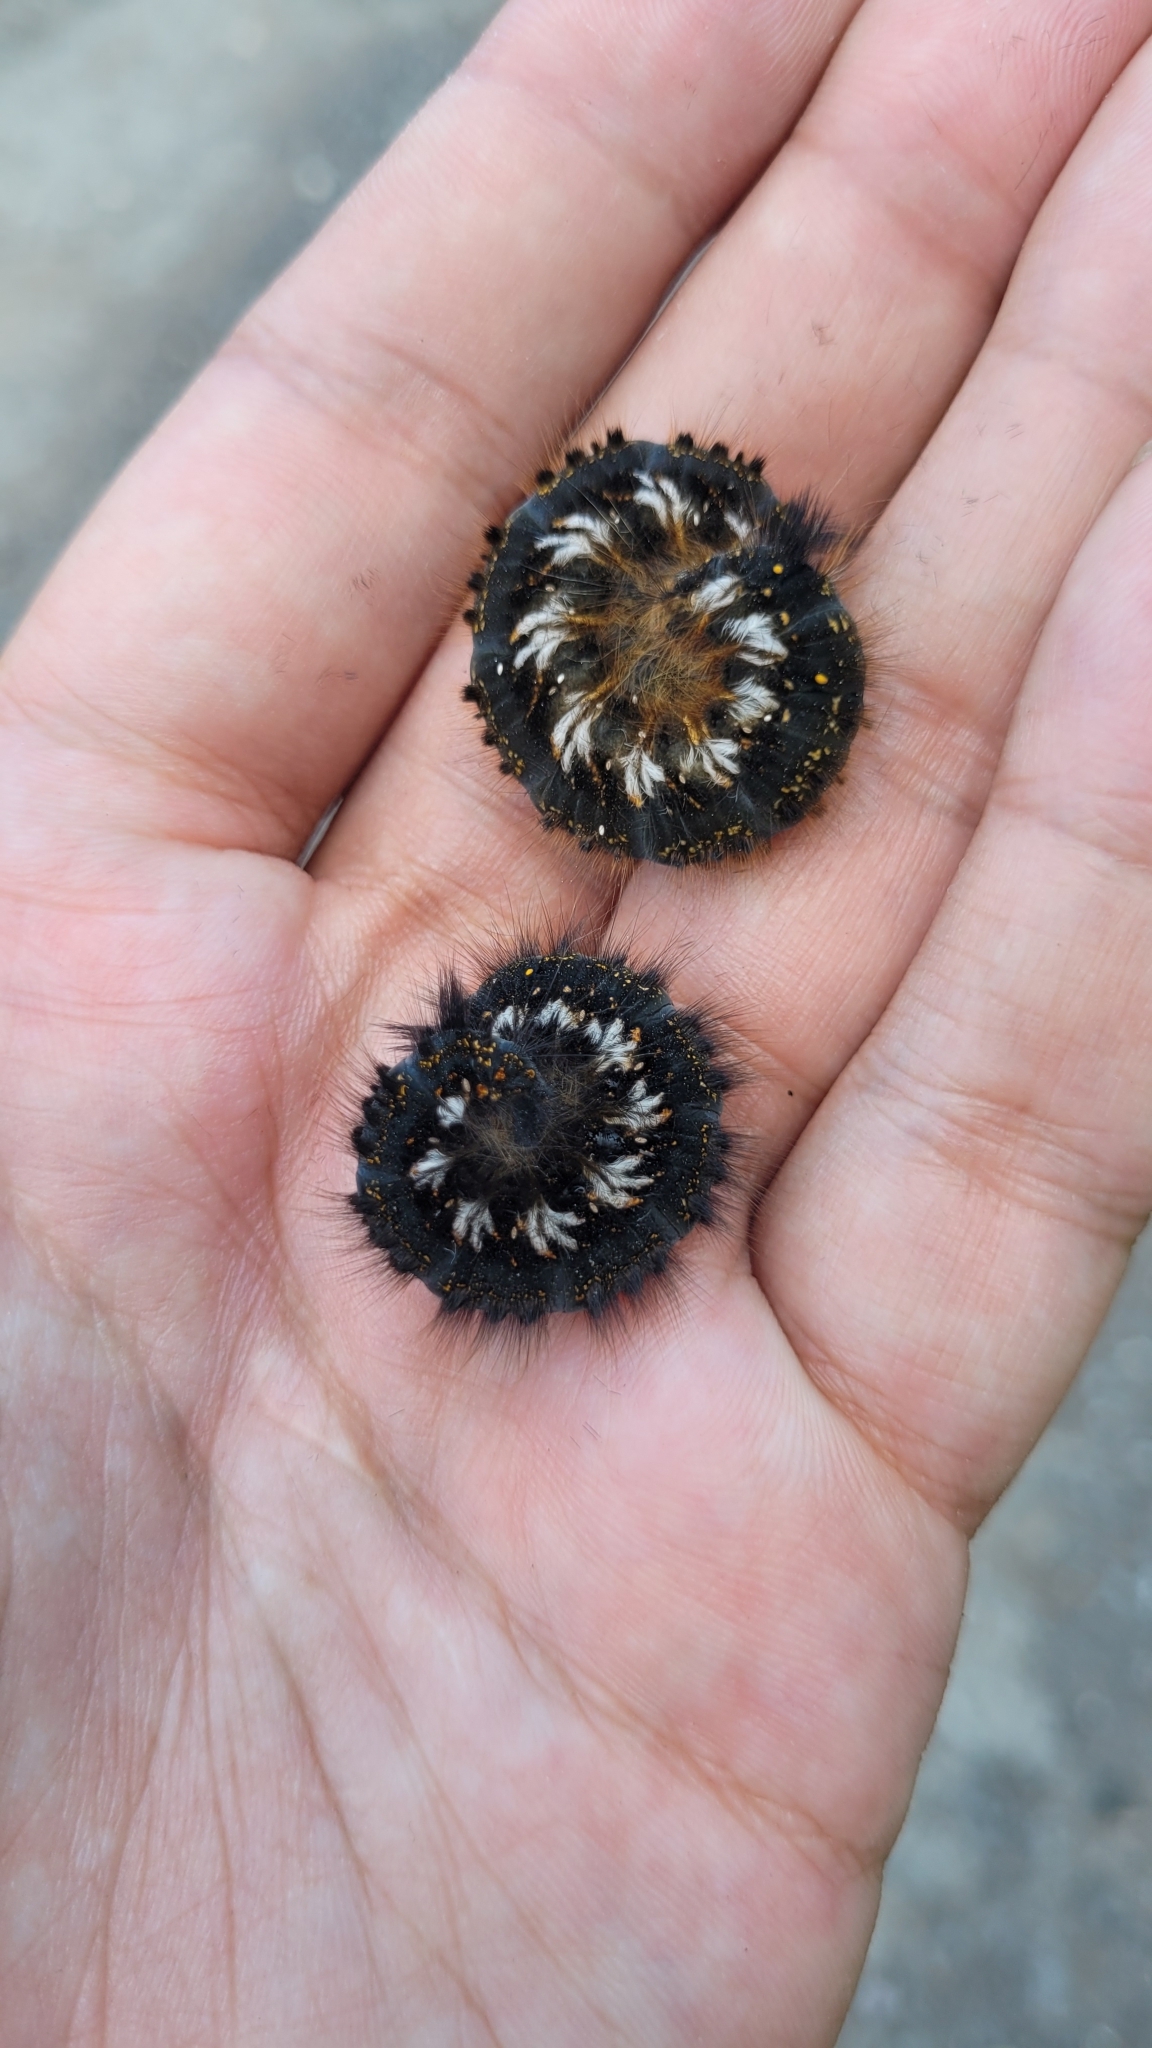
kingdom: Animalia
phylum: Arthropoda
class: Insecta
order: Lepidoptera
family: Lasiocampidae
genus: Euthrix
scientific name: Euthrix potatoria
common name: Drinker
